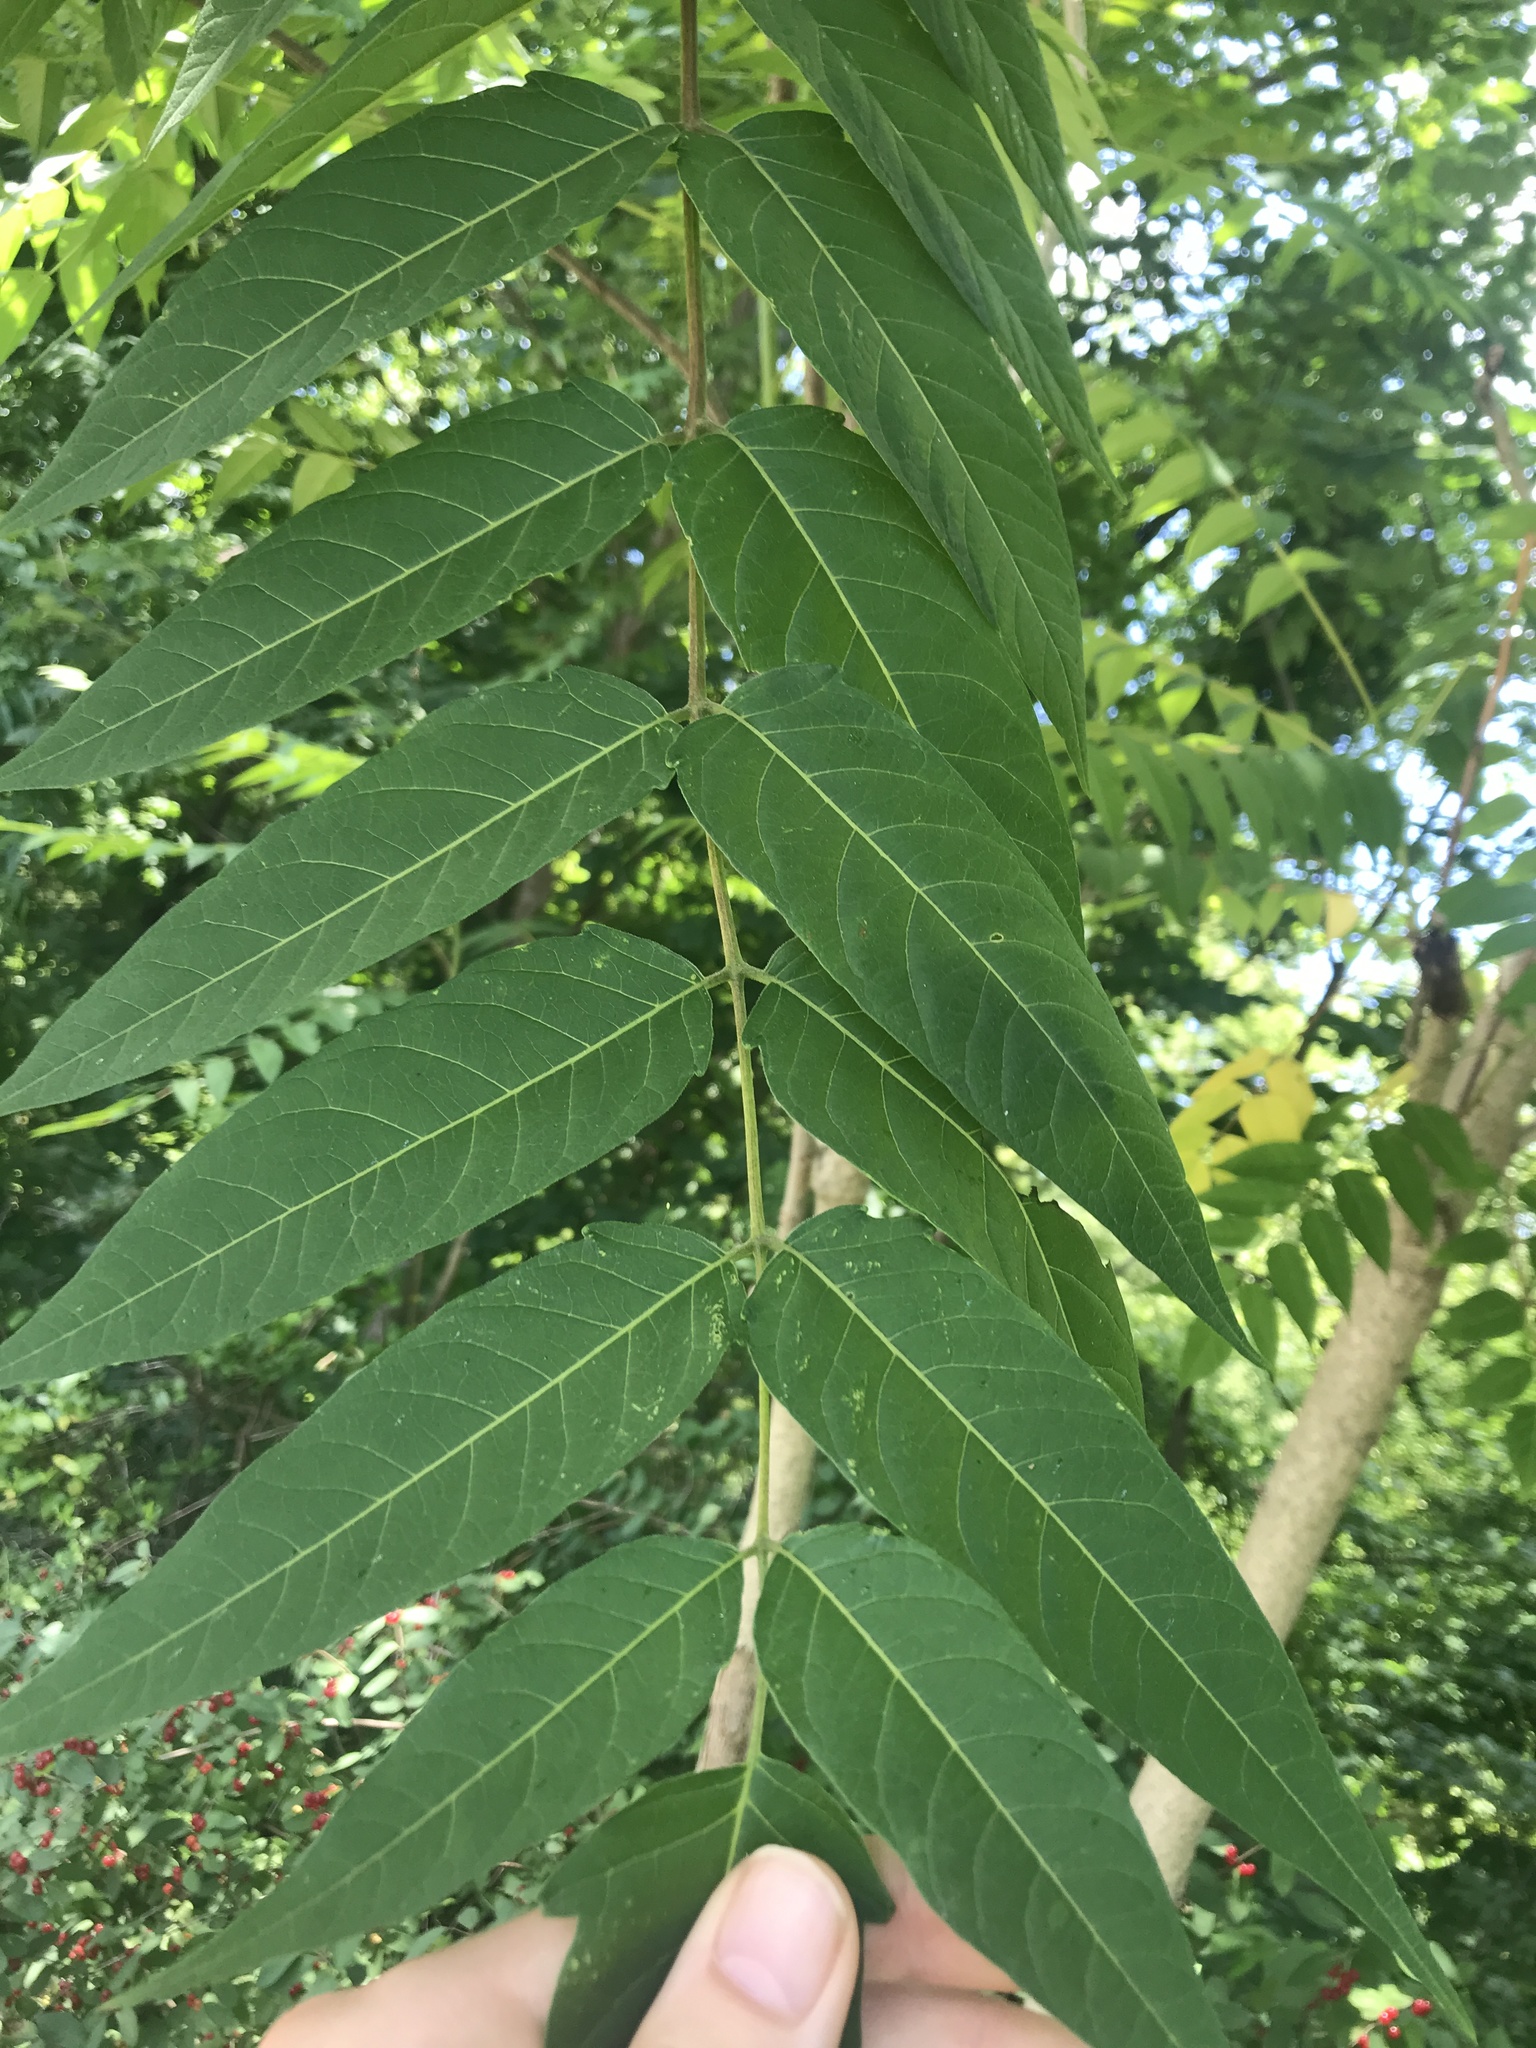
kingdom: Plantae
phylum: Tracheophyta
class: Magnoliopsida
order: Sapindales
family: Simaroubaceae
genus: Ailanthus
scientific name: Ailanthus altissima
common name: Tree-of-heaven
